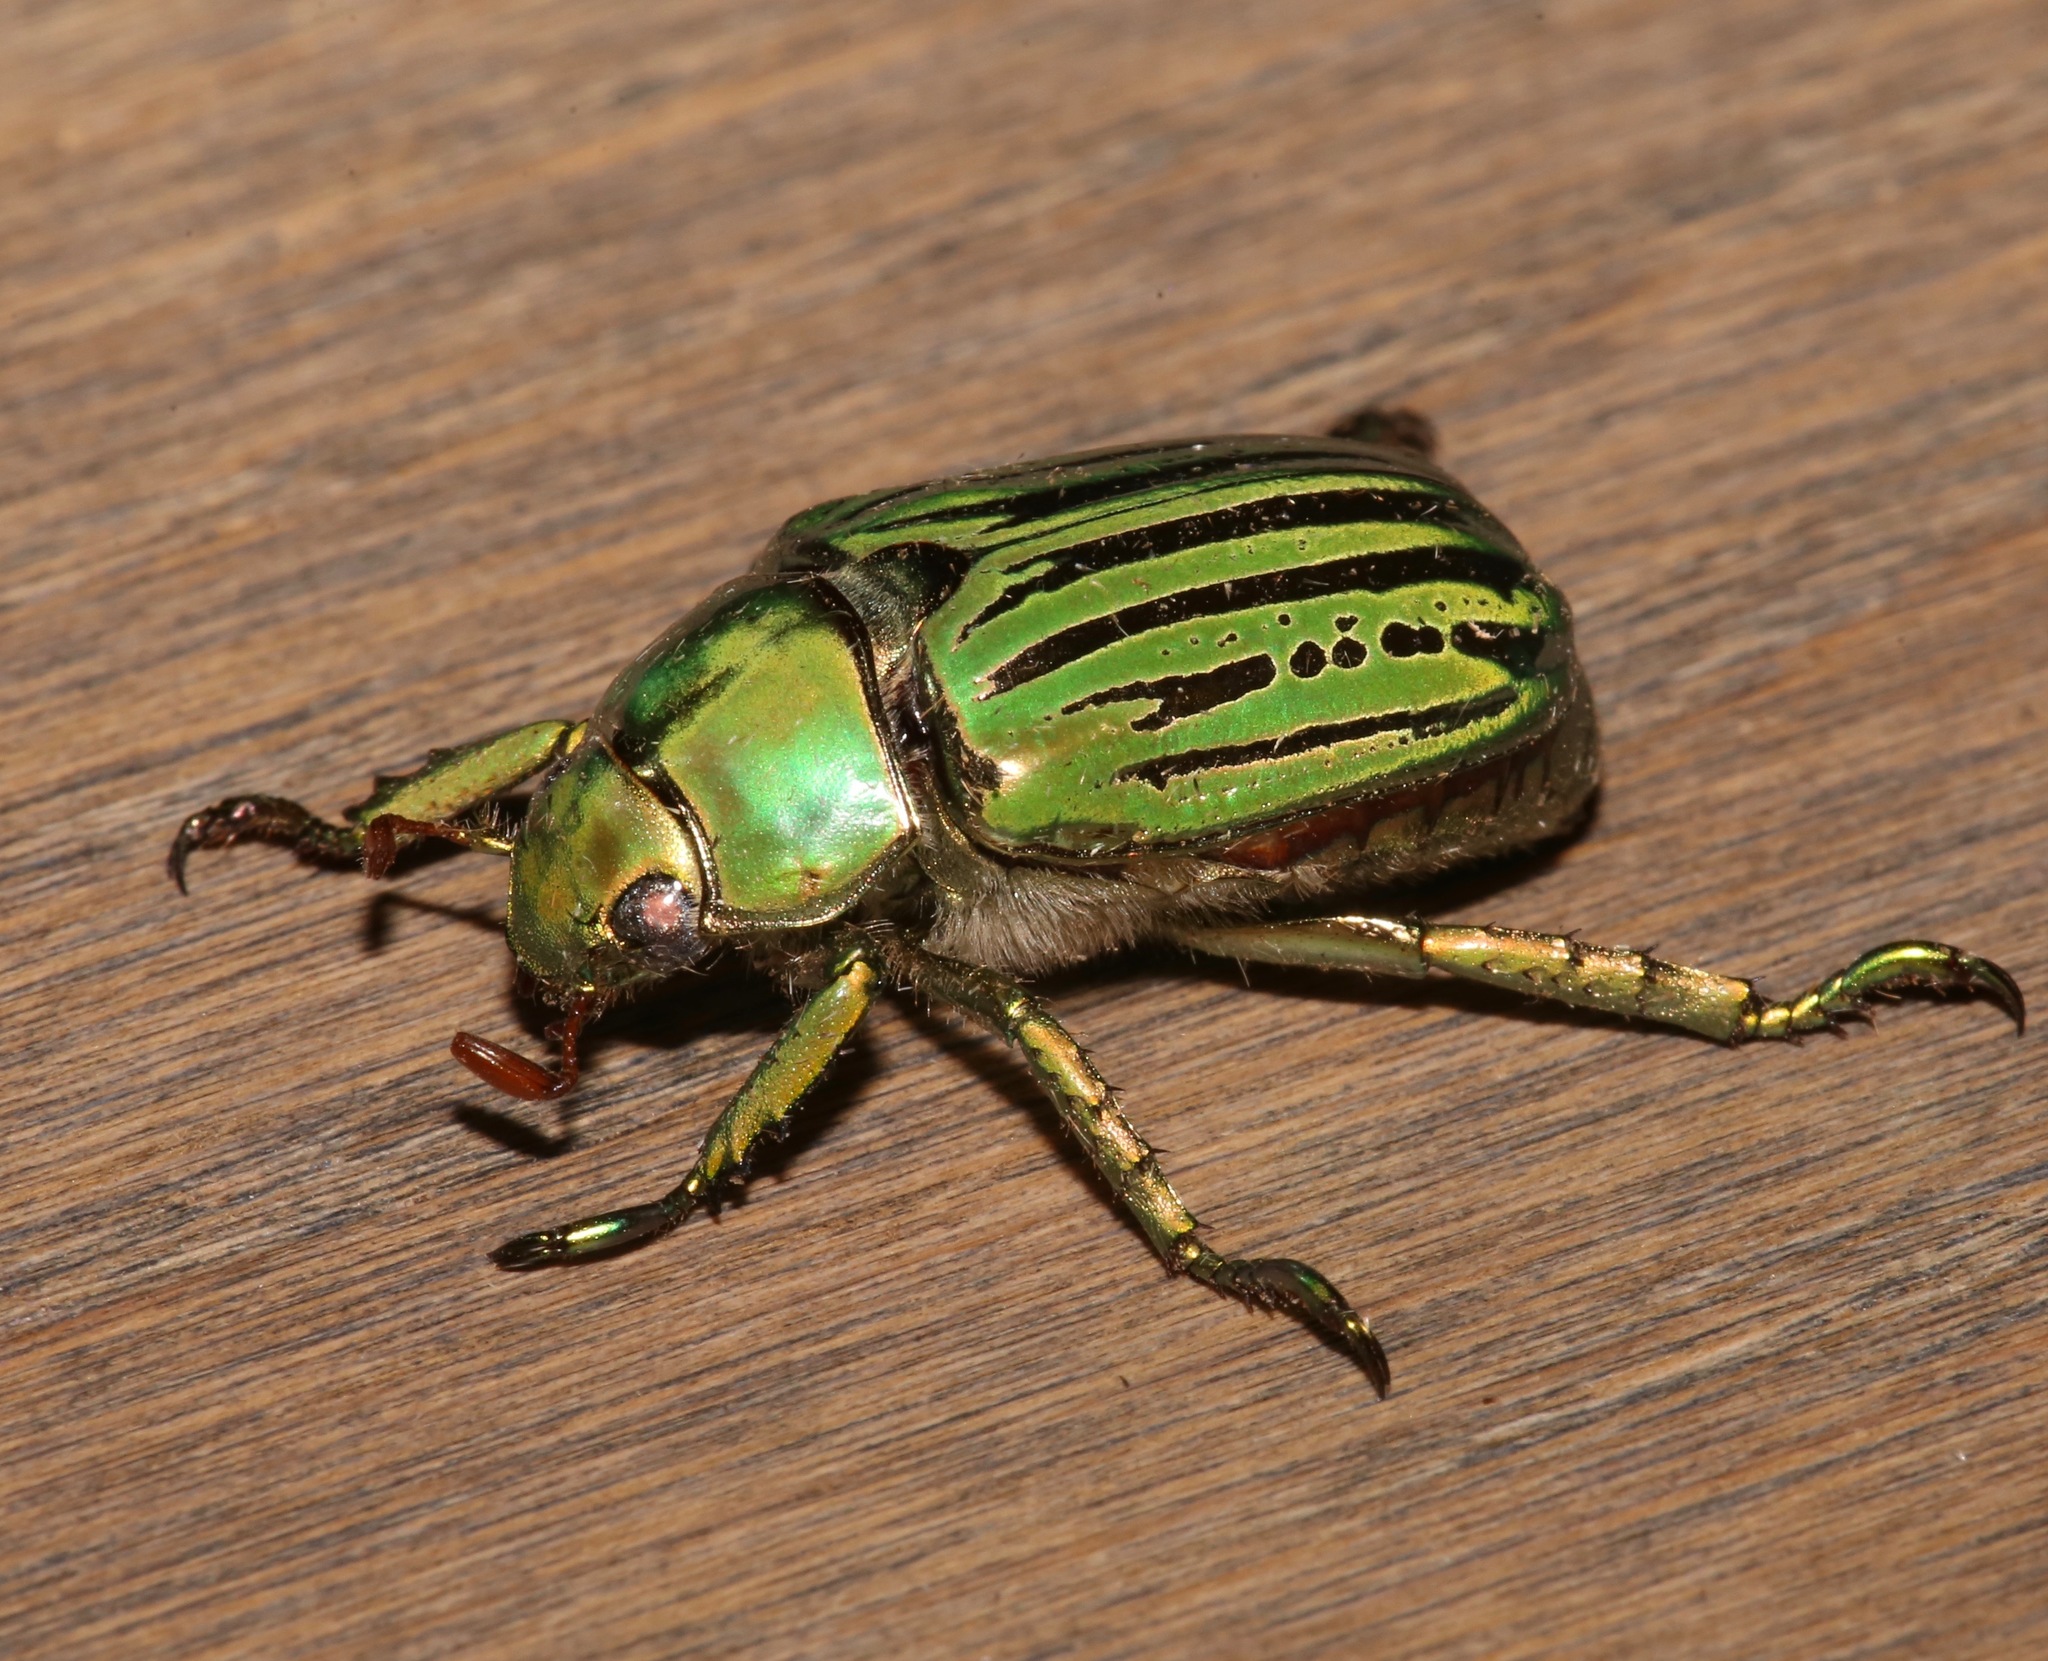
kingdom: Animalia
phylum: Arthropoda
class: Insecta
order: Coleoptera
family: Scarabaeidae
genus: Chrysina
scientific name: Chrysina gloriosa
